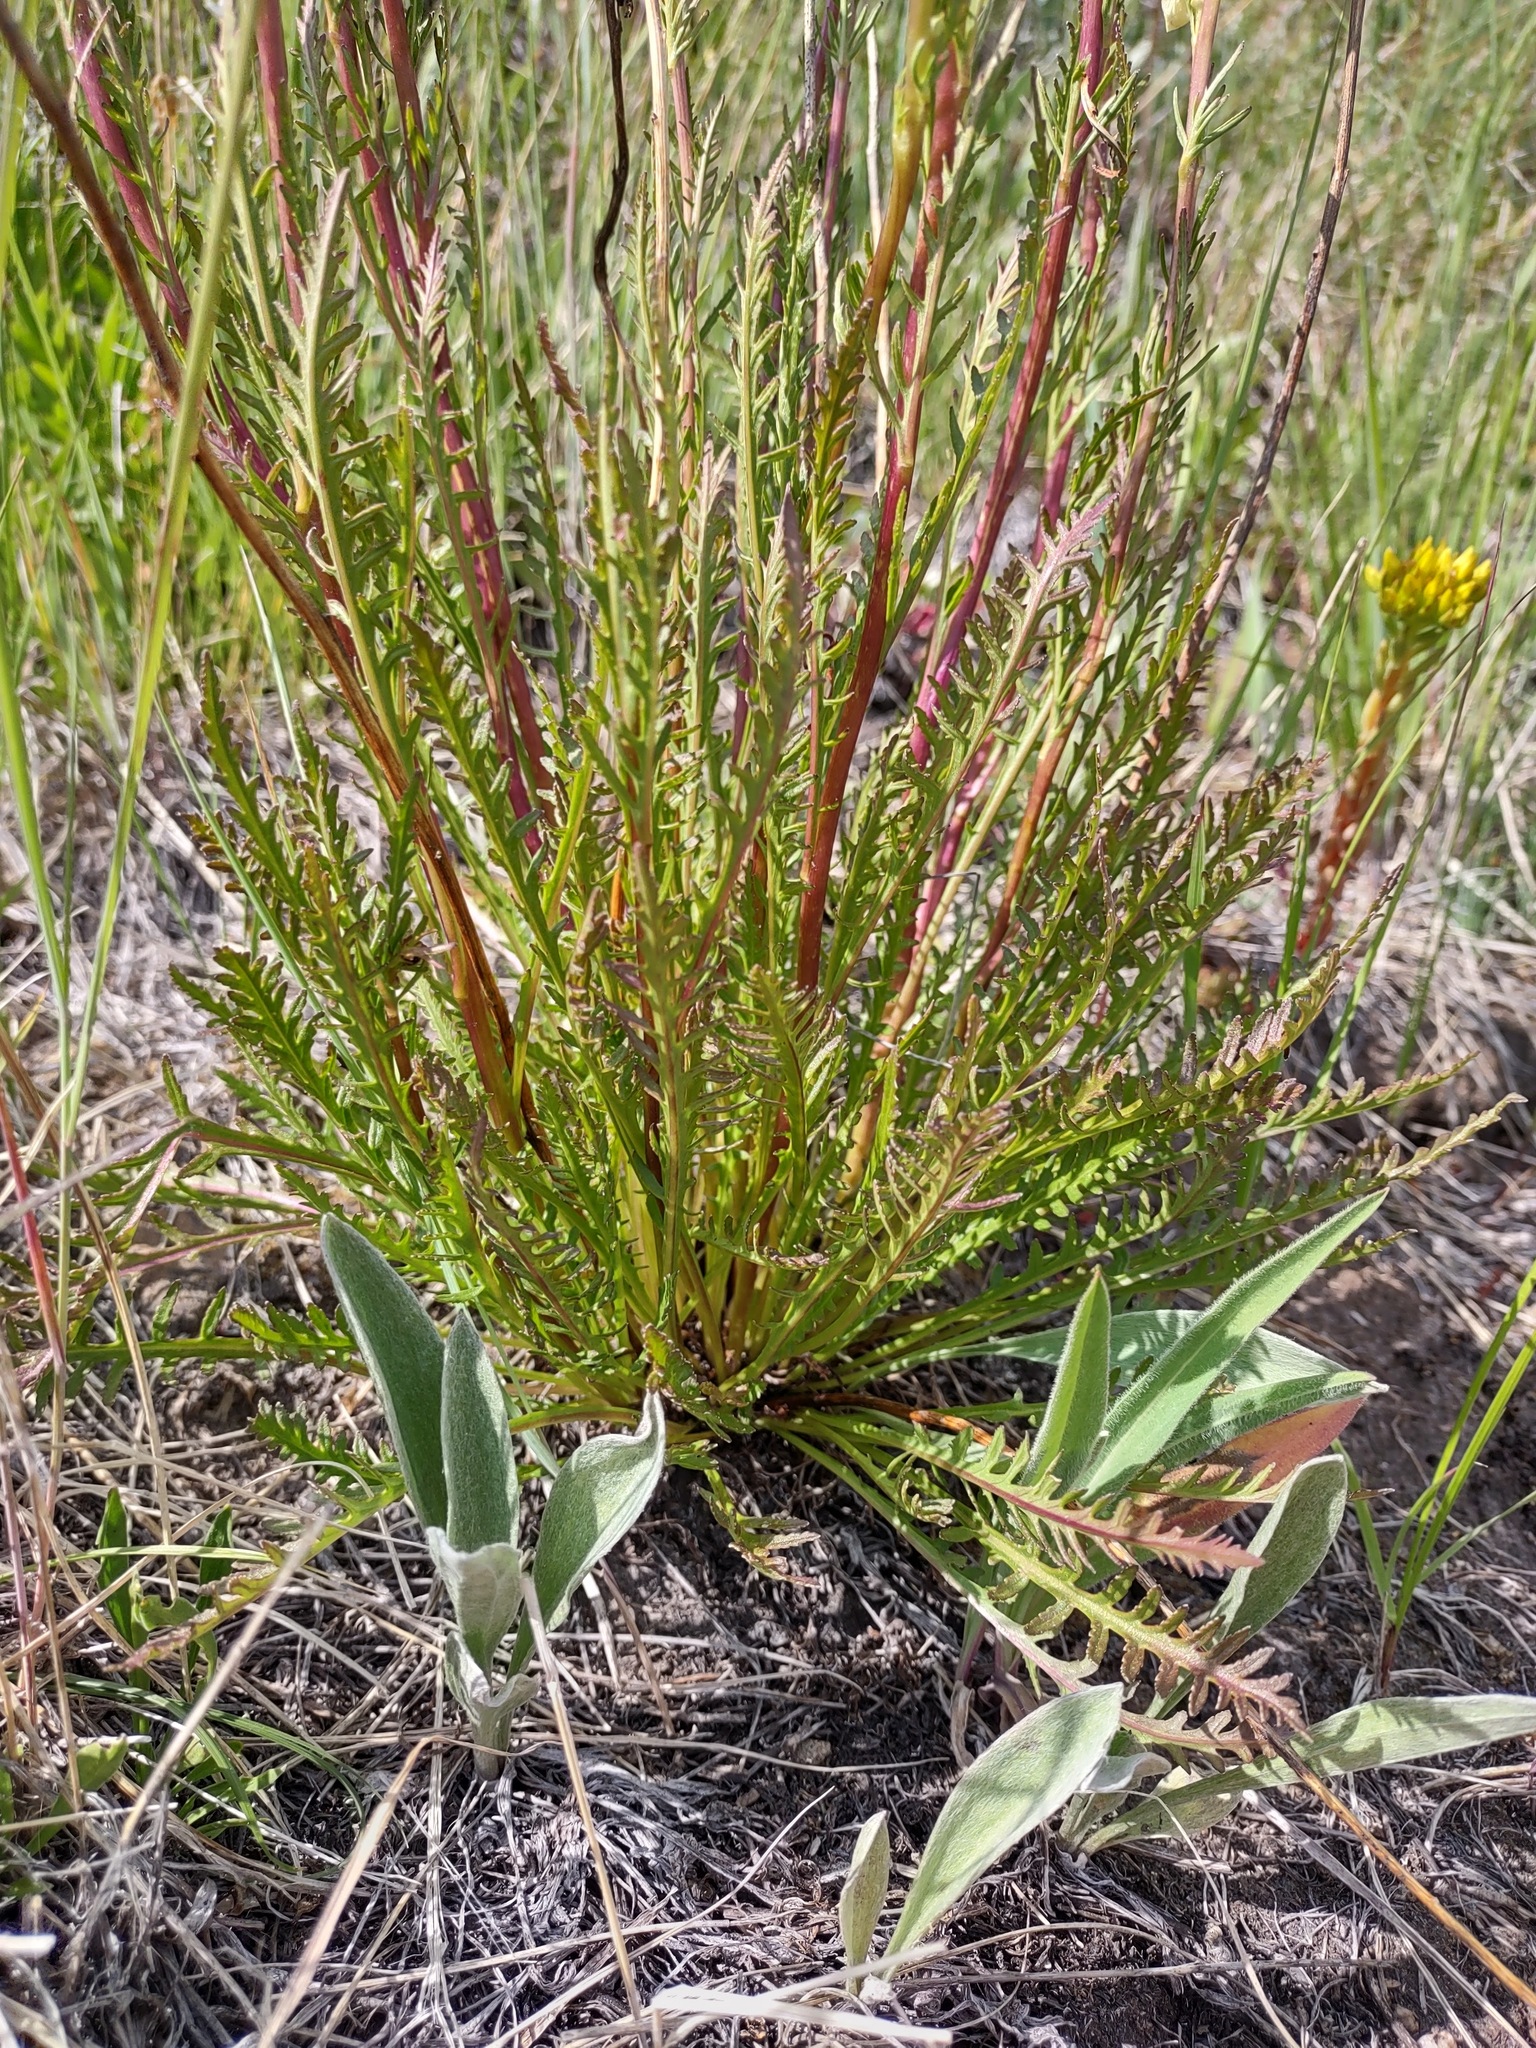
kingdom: Plantae
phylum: Tracheophyta
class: Magnoliopsida
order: Lamiales
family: Orobanchaceae
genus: Pedicularis
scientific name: Pedicularis contorta
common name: Coiled lousewort
